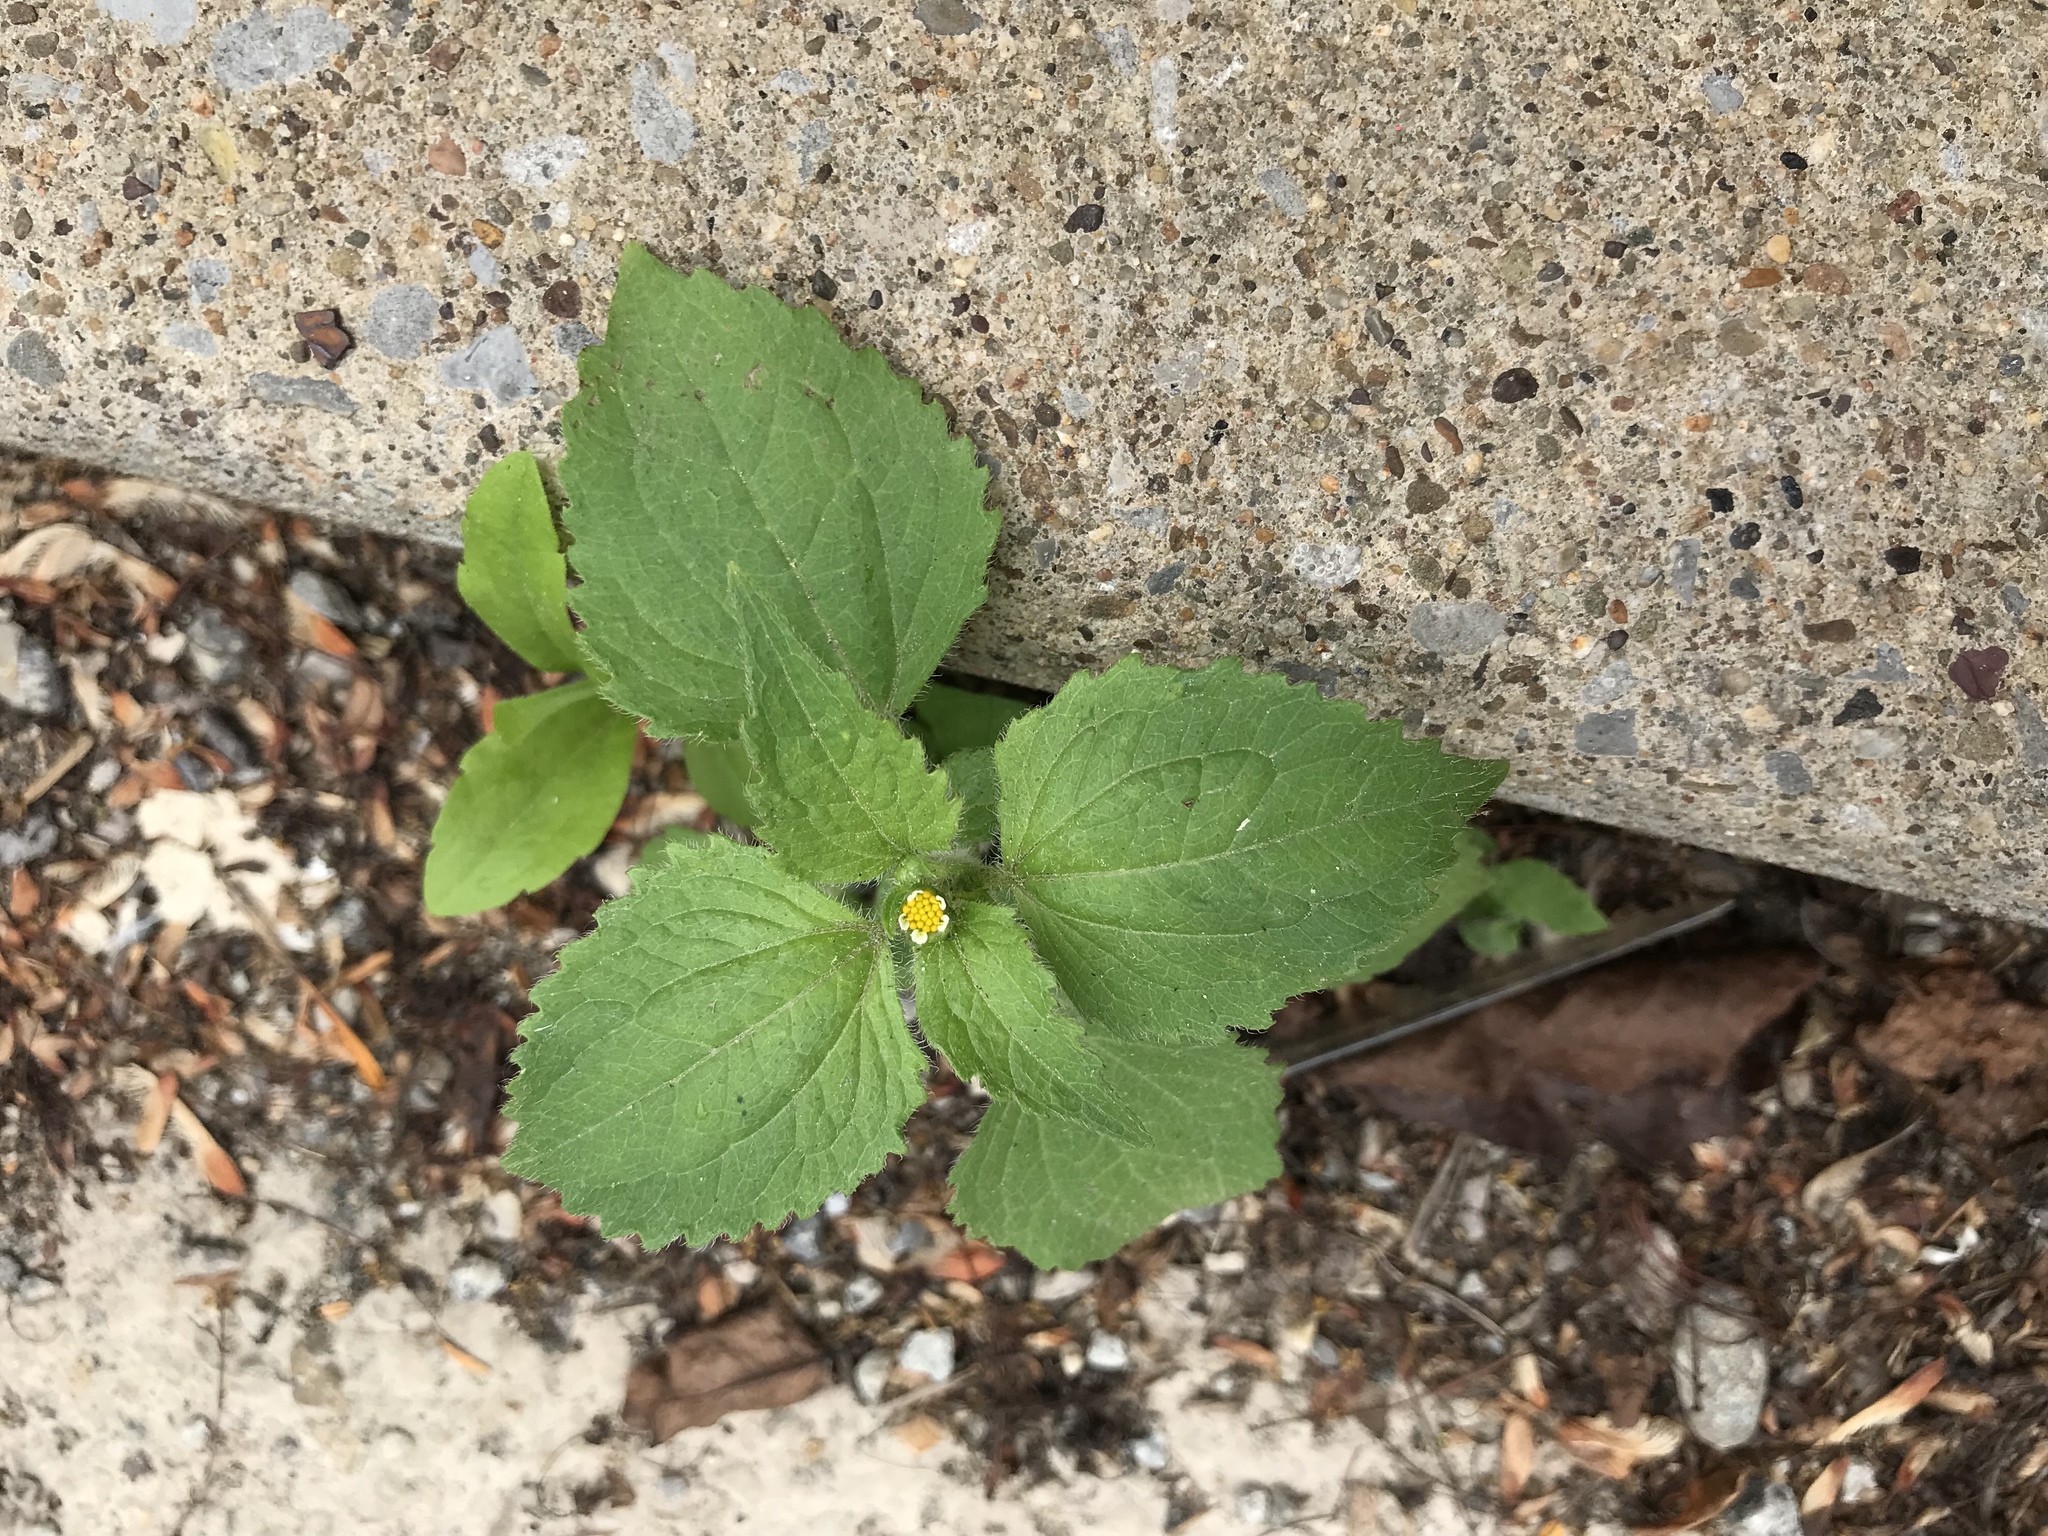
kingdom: Plantae
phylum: Tracheophyta
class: Magnoliopsida
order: Asterales
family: Asteraceae
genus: Galinsoga
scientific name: Galinsoga quadriradiata
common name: Shaggy soldier
